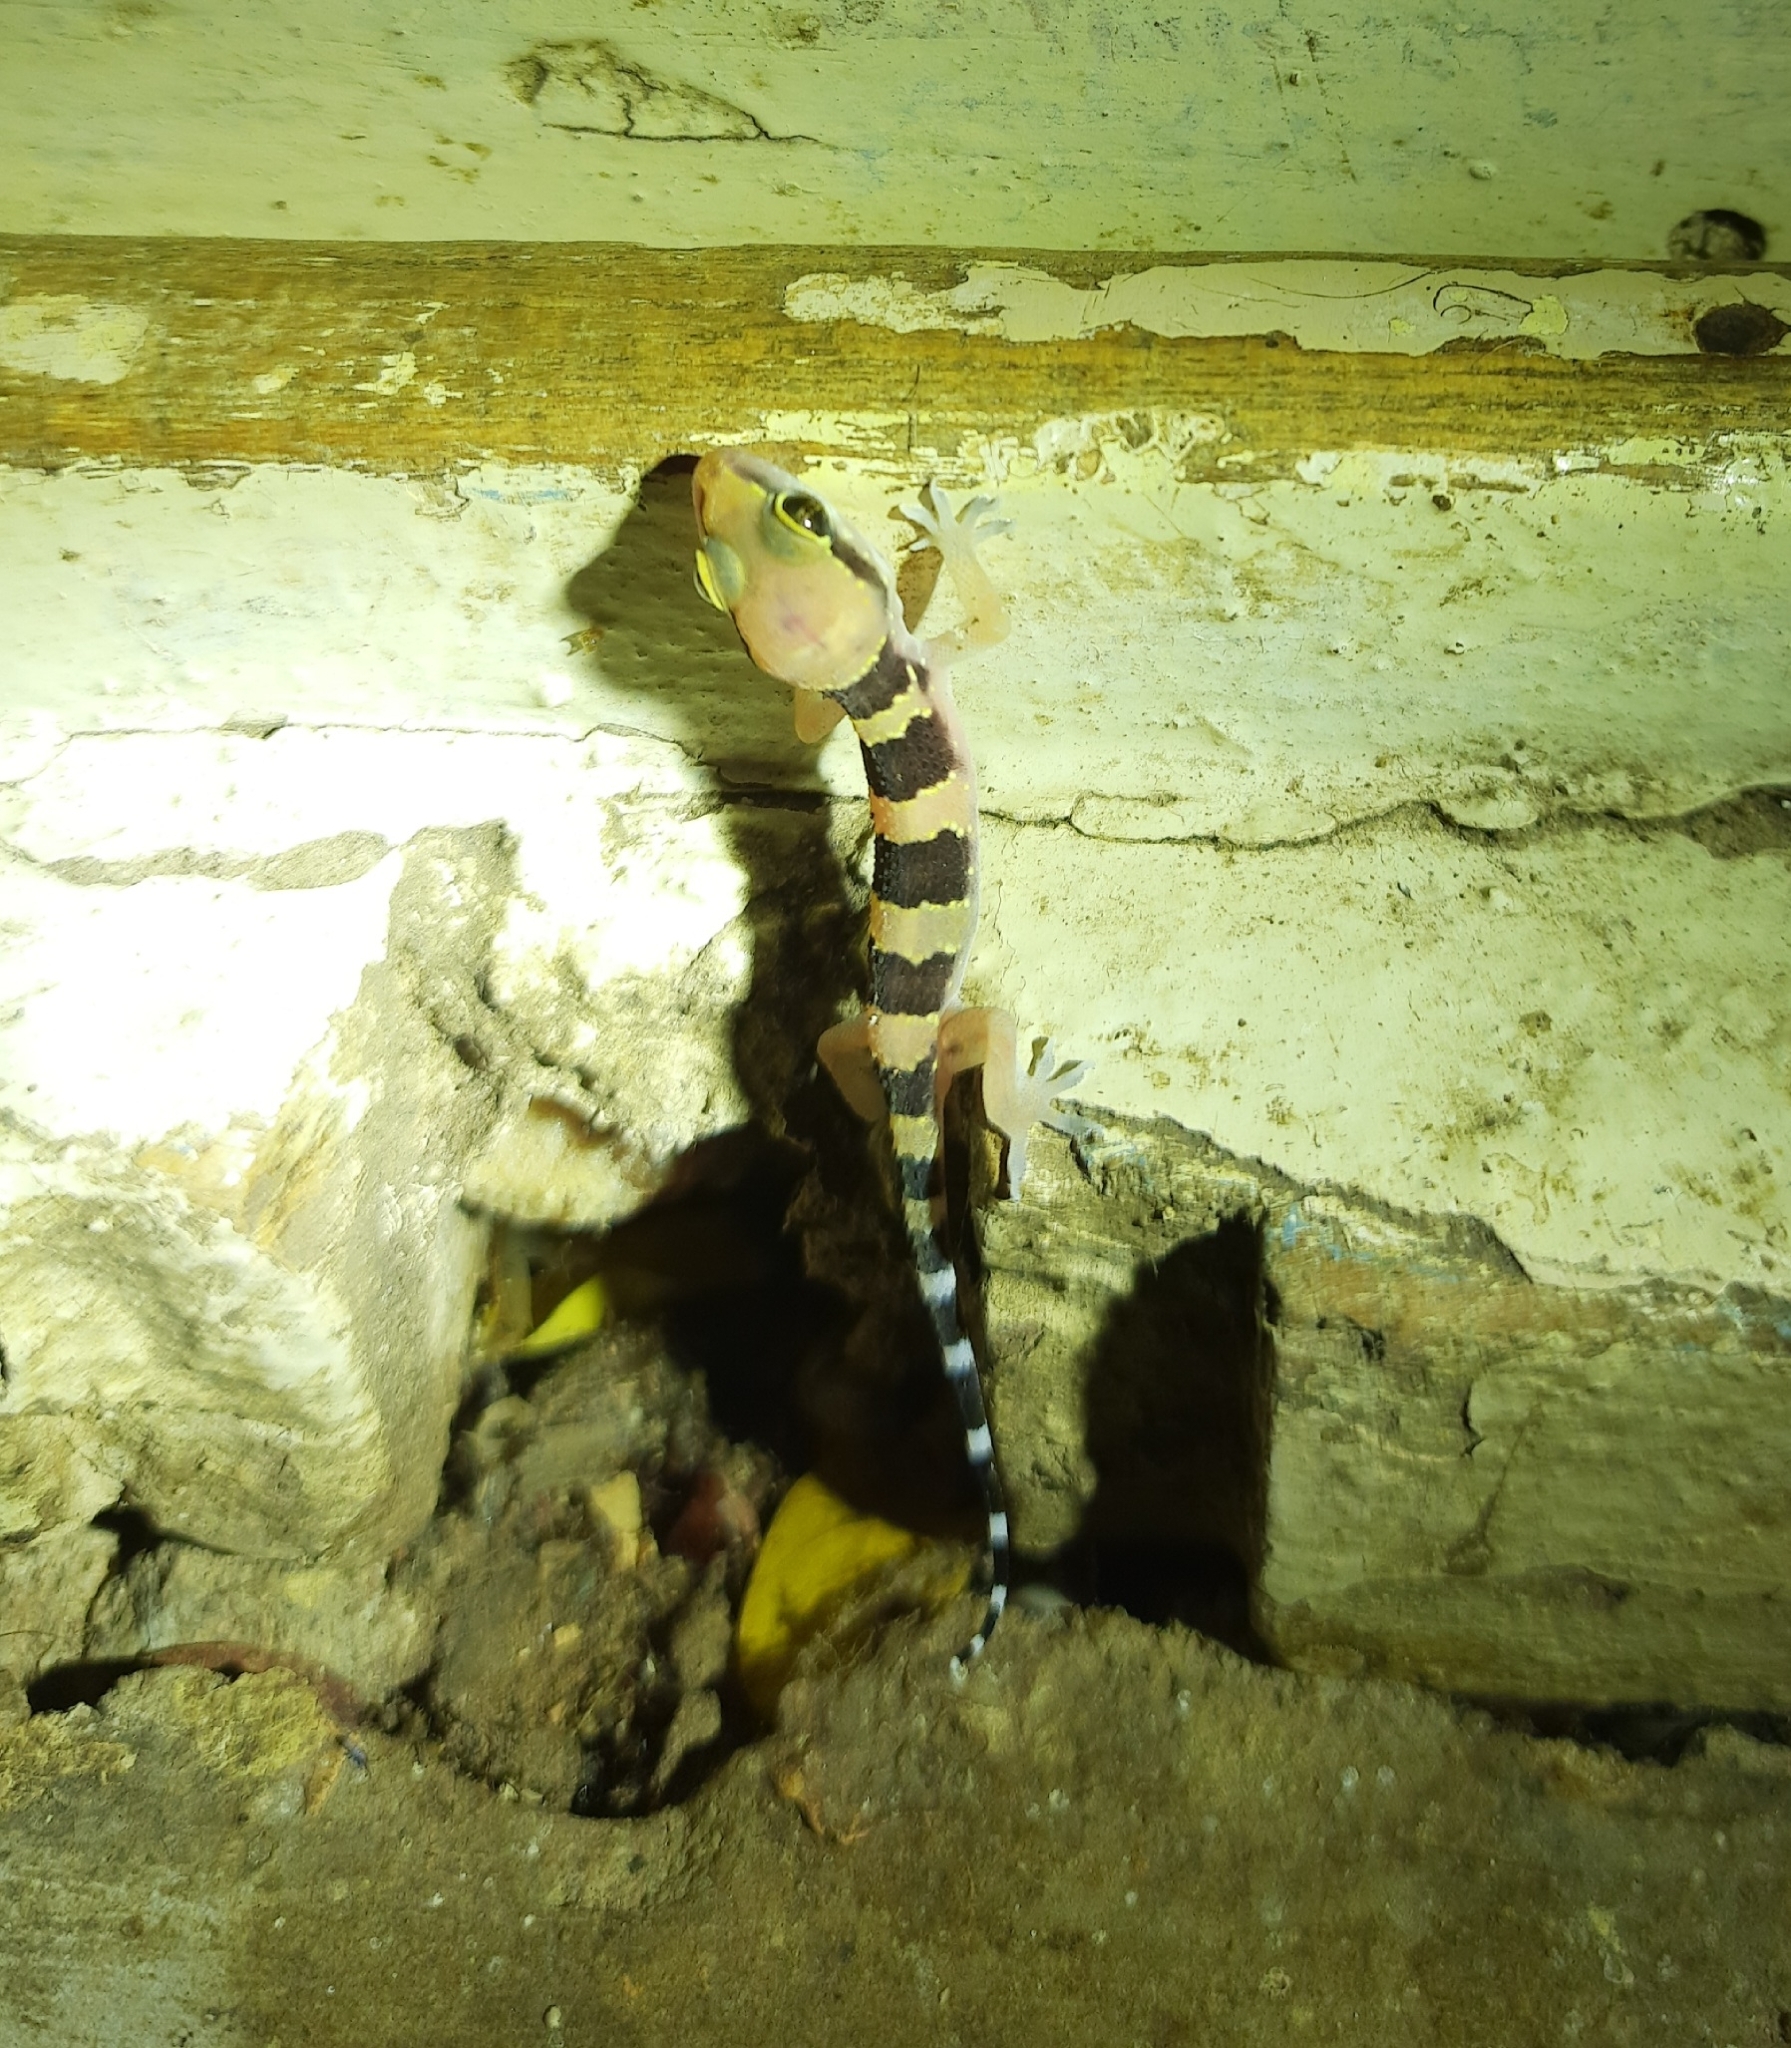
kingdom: Animalia
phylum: Chordata
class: Squamata
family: Gekkonidae
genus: Hemidactylus
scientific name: Hemidactylus triedrus
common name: Blotched house gecko
